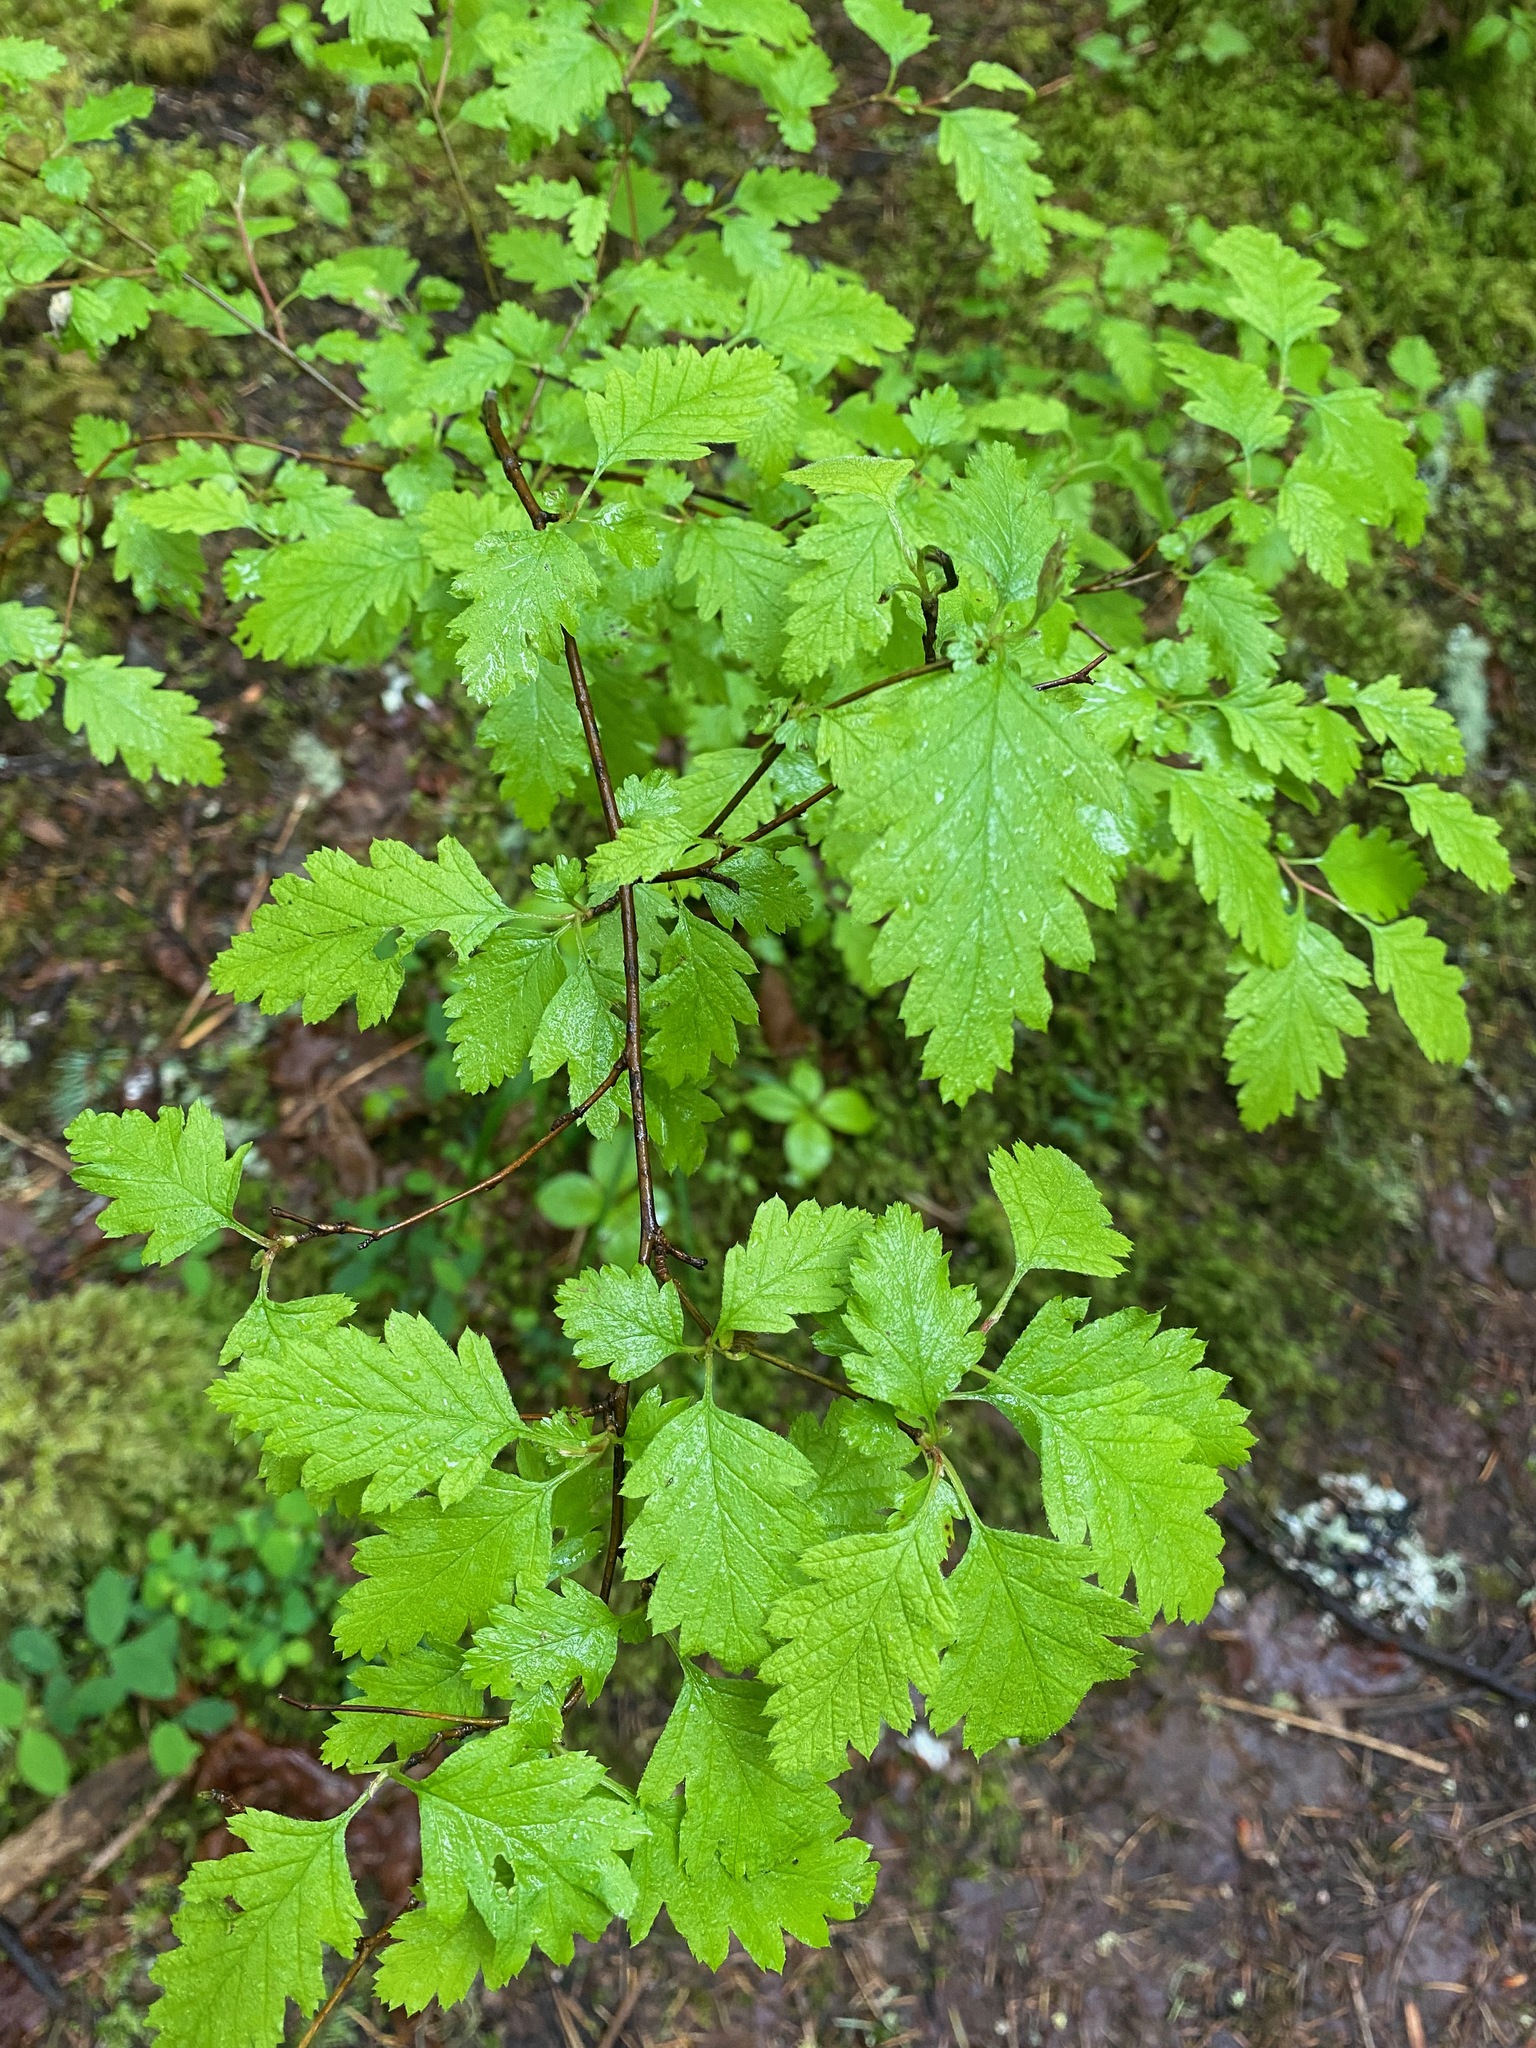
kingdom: Plantae
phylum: Tracheophyta
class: Magnoliopsida
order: Rosales
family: Rosaceae
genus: Holodiscus
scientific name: Holodiscus discolor
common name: Oceanspray
